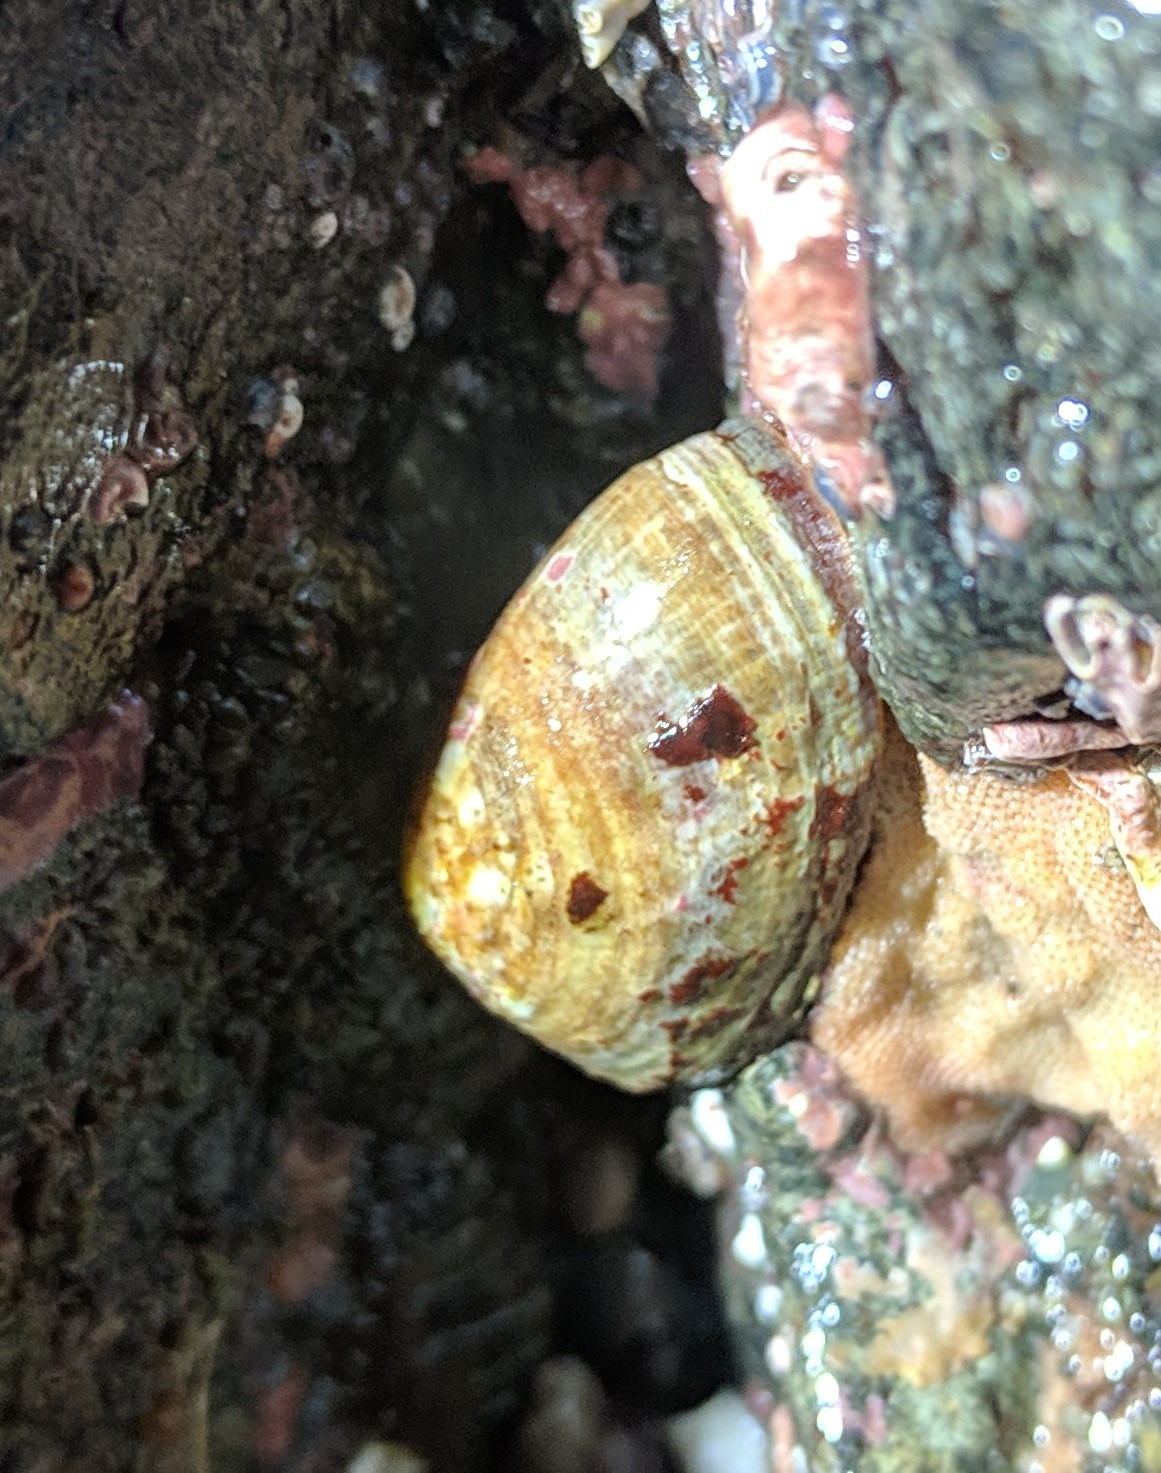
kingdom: Animalia
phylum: Mollusca
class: Gastropoda
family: Lottiidae
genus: Lottia
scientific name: Lottia instabilis
